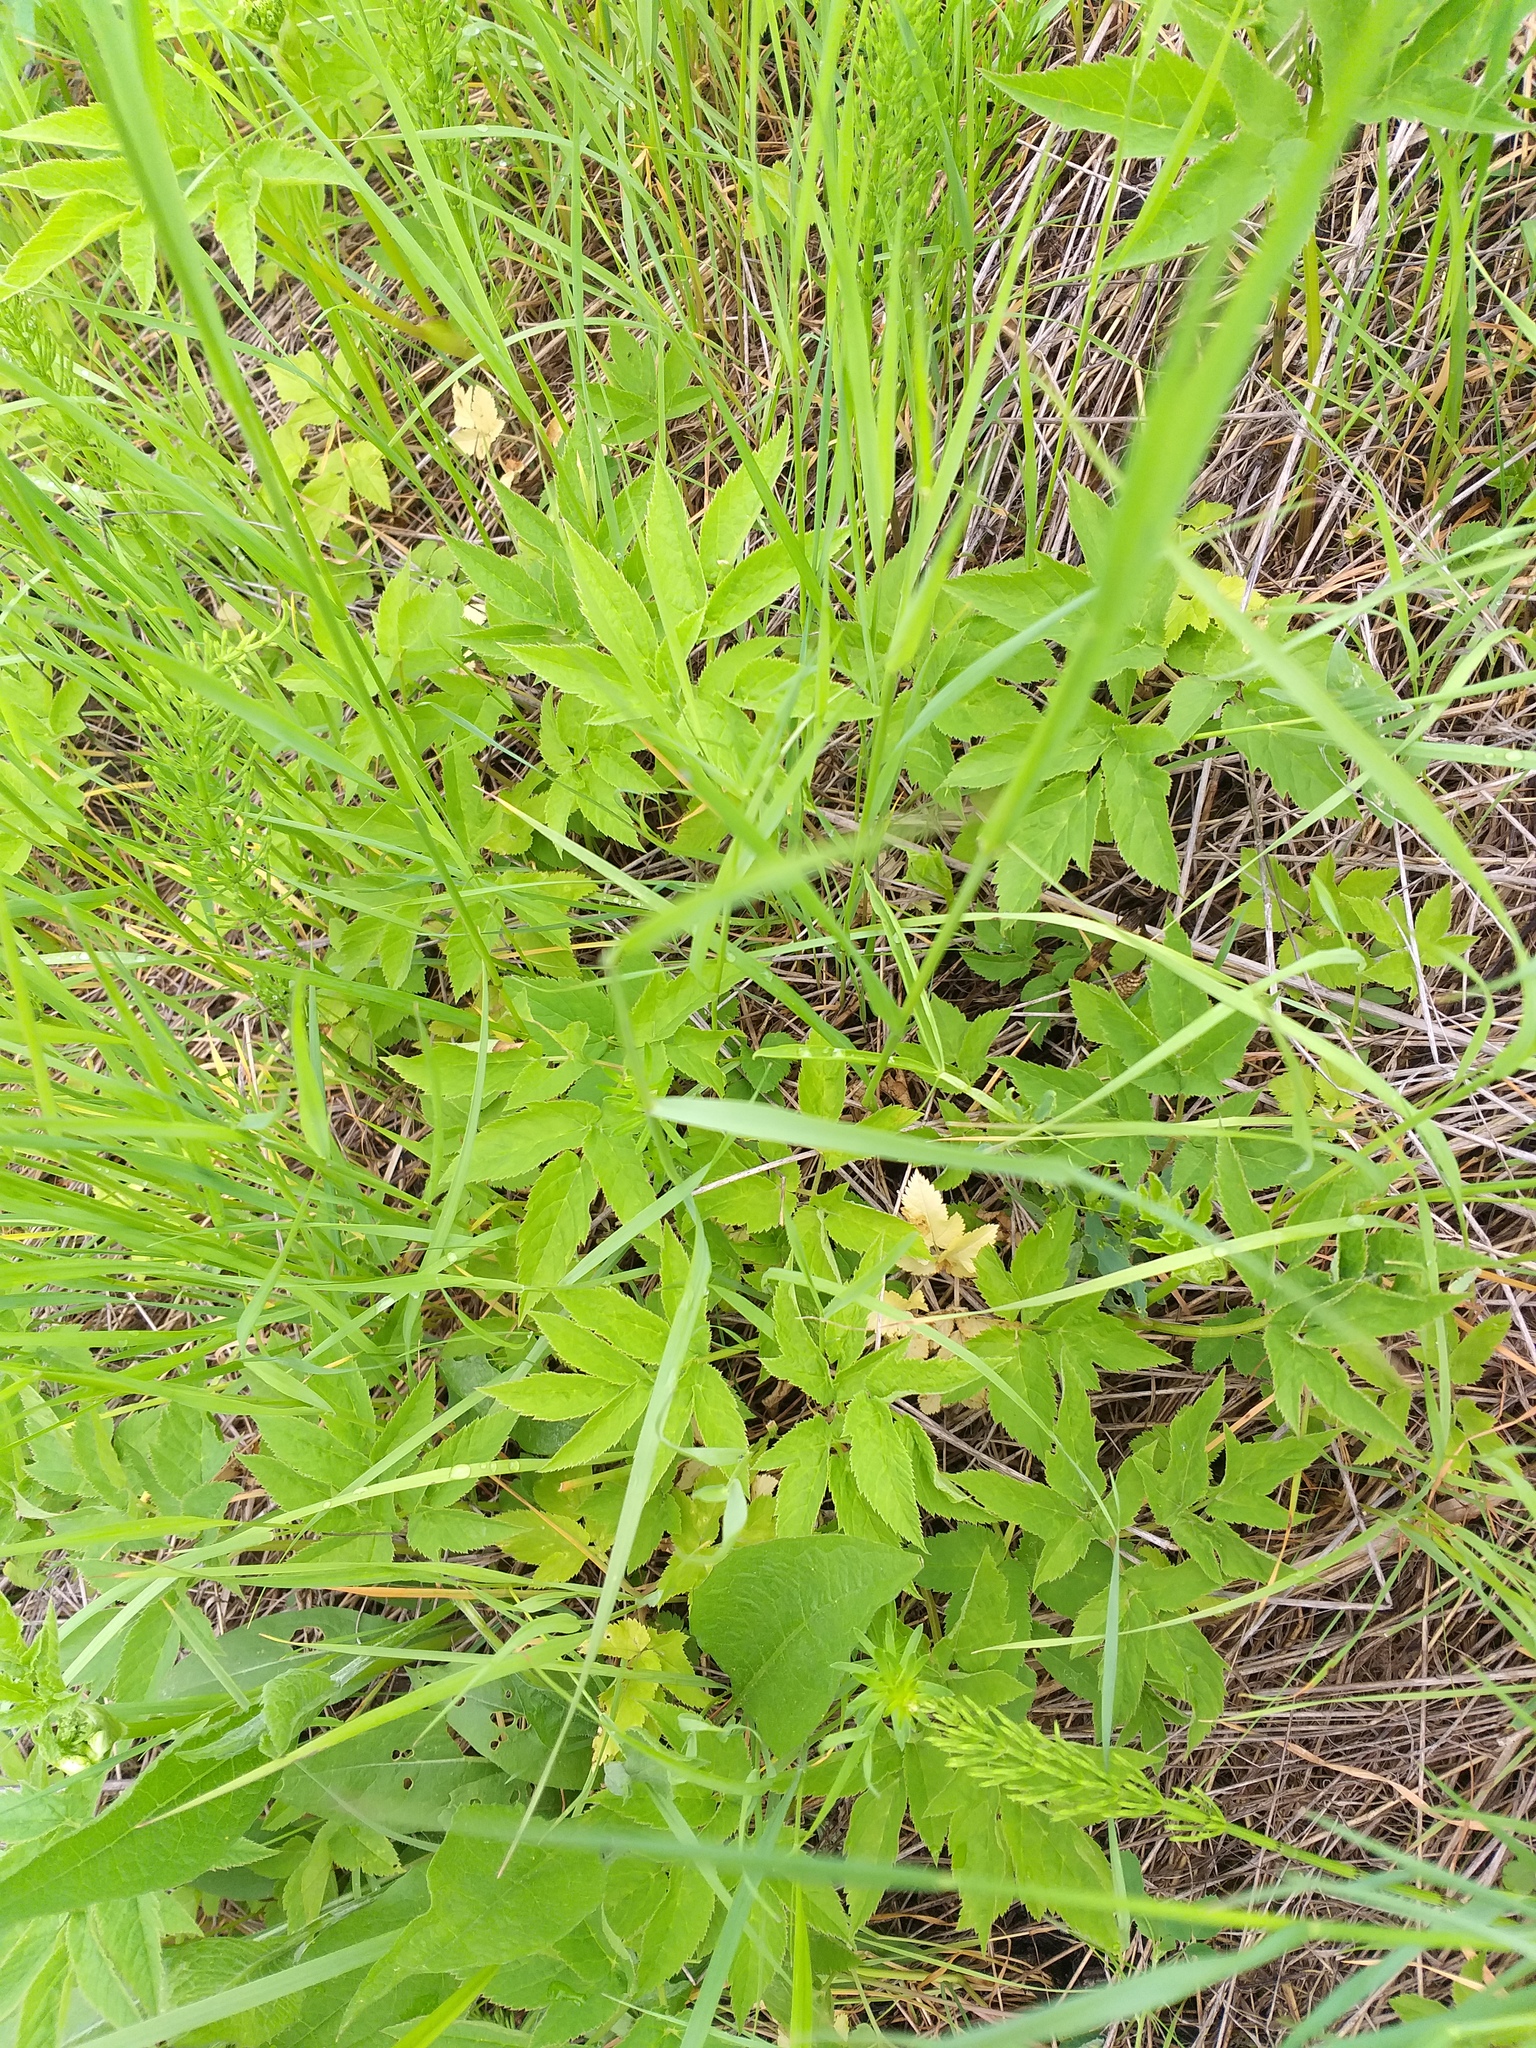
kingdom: Plantae
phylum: Tracheophyta
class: Magnoliopsida
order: Apiales
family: Apiaceae
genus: Aegopodium
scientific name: Aegopodium podagraria
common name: Ground-elder
